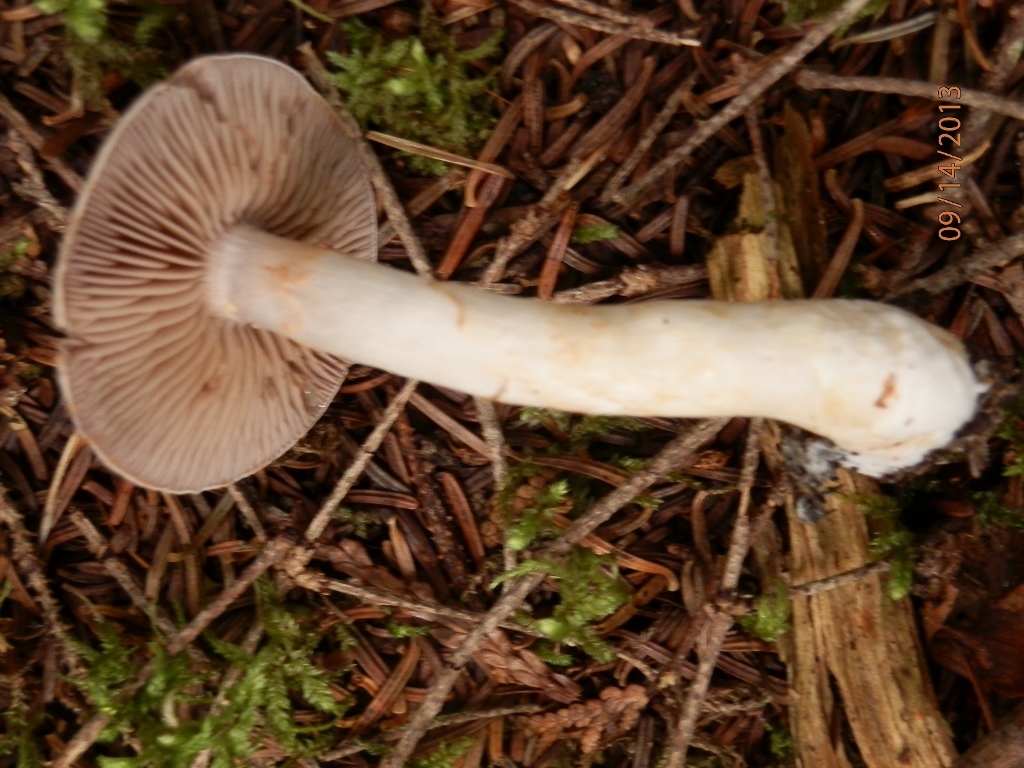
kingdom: Fungi
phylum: Basidiomycota
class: Agaricomycetes
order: Agaricales
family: Cortinariaceae
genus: Cortinarius
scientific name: Cortinarius anomalus
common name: Variable webcap
